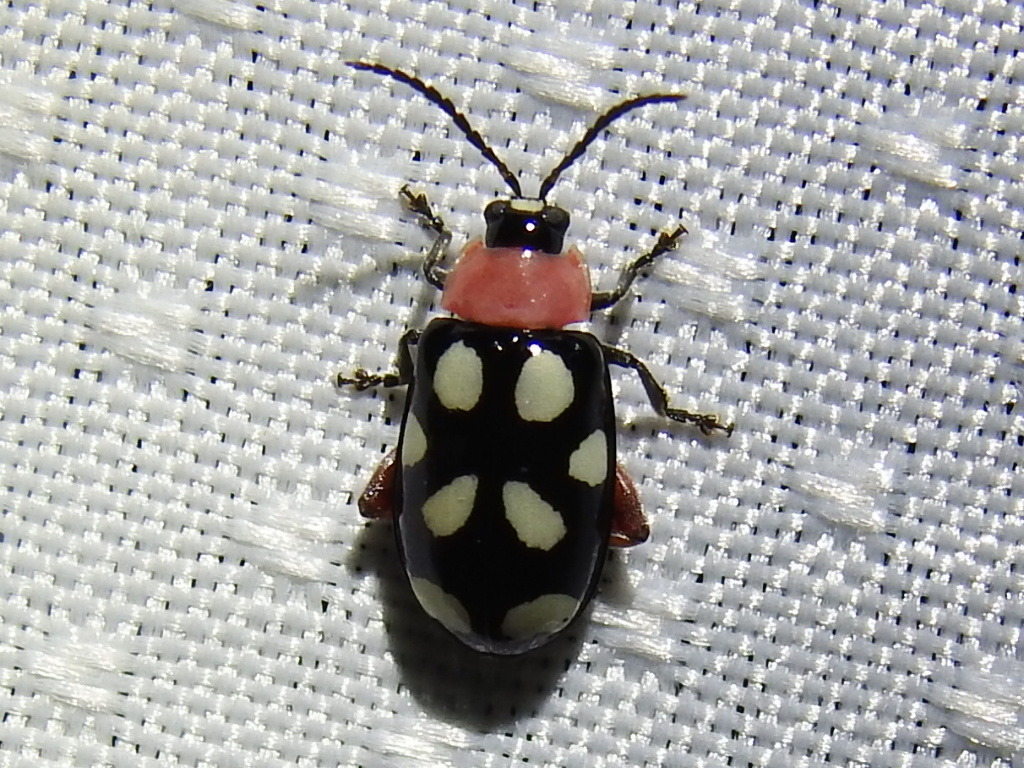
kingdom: Animalia
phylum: Arthropoda
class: Insecta
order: Coleoptera
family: Chrysomelidae
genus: Omophoita
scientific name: Omophoita cyanipennis
